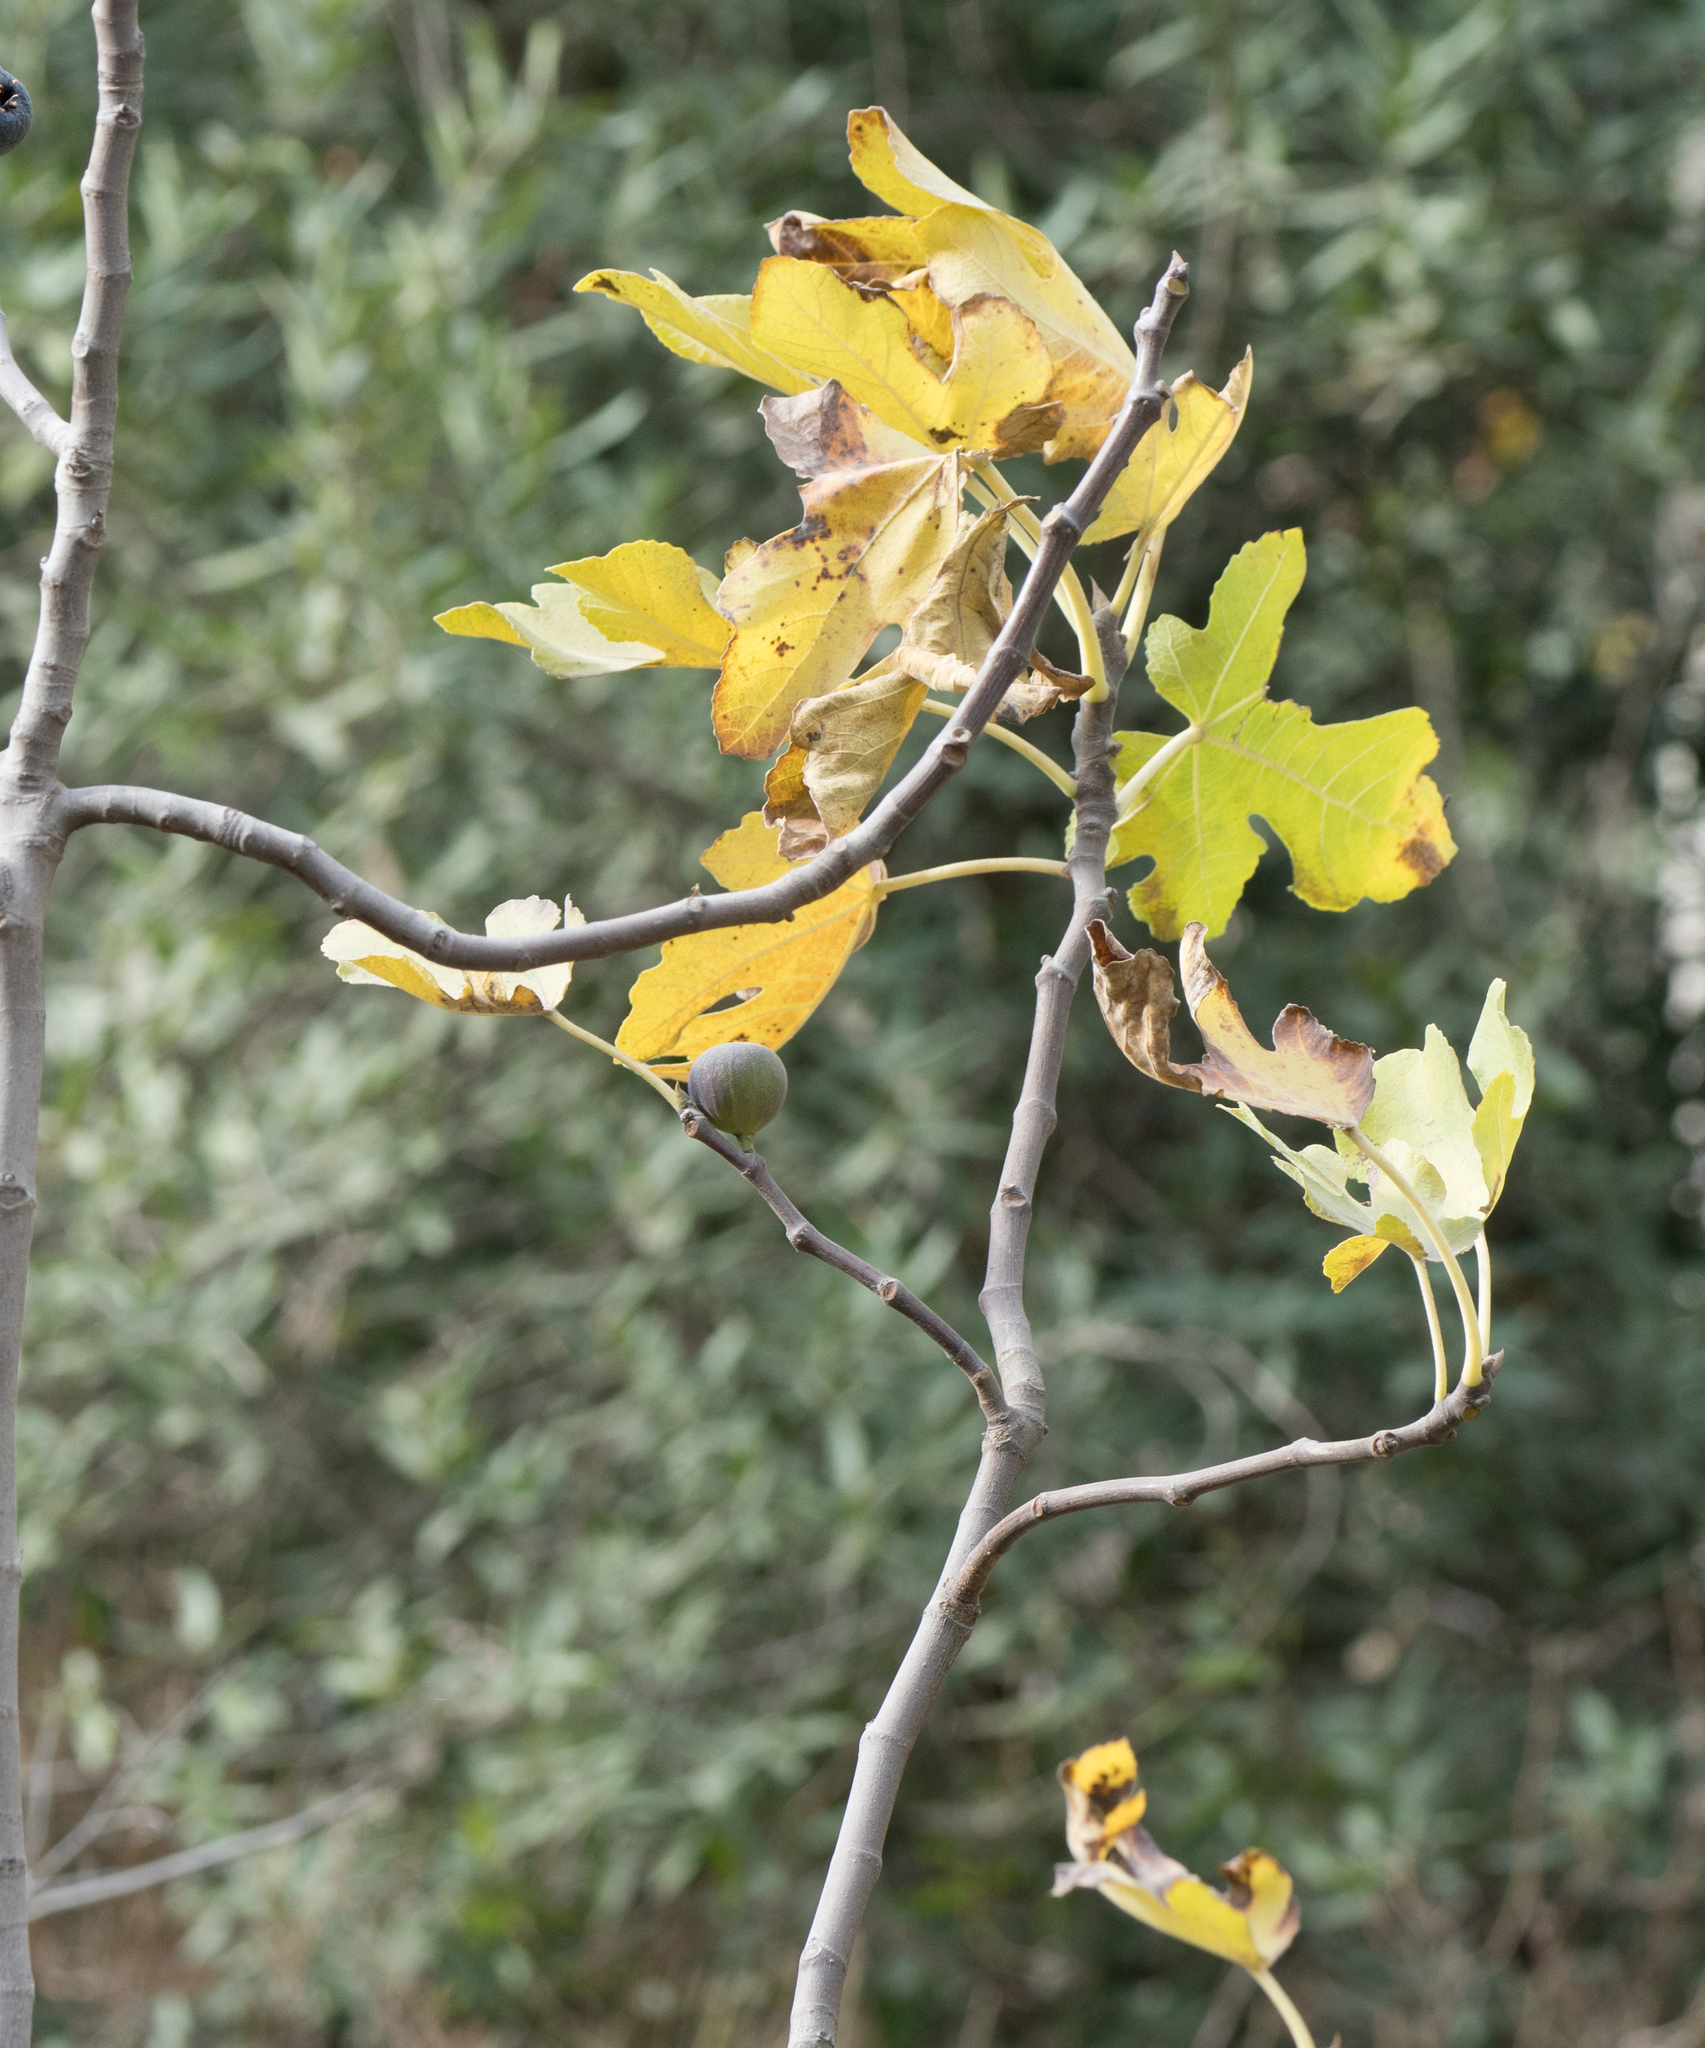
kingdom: Plantae
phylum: Tracheophyta
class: Magnoliopsida
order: Rosales
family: Moraceae
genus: Ficus
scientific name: Ficus carica
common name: Fig
